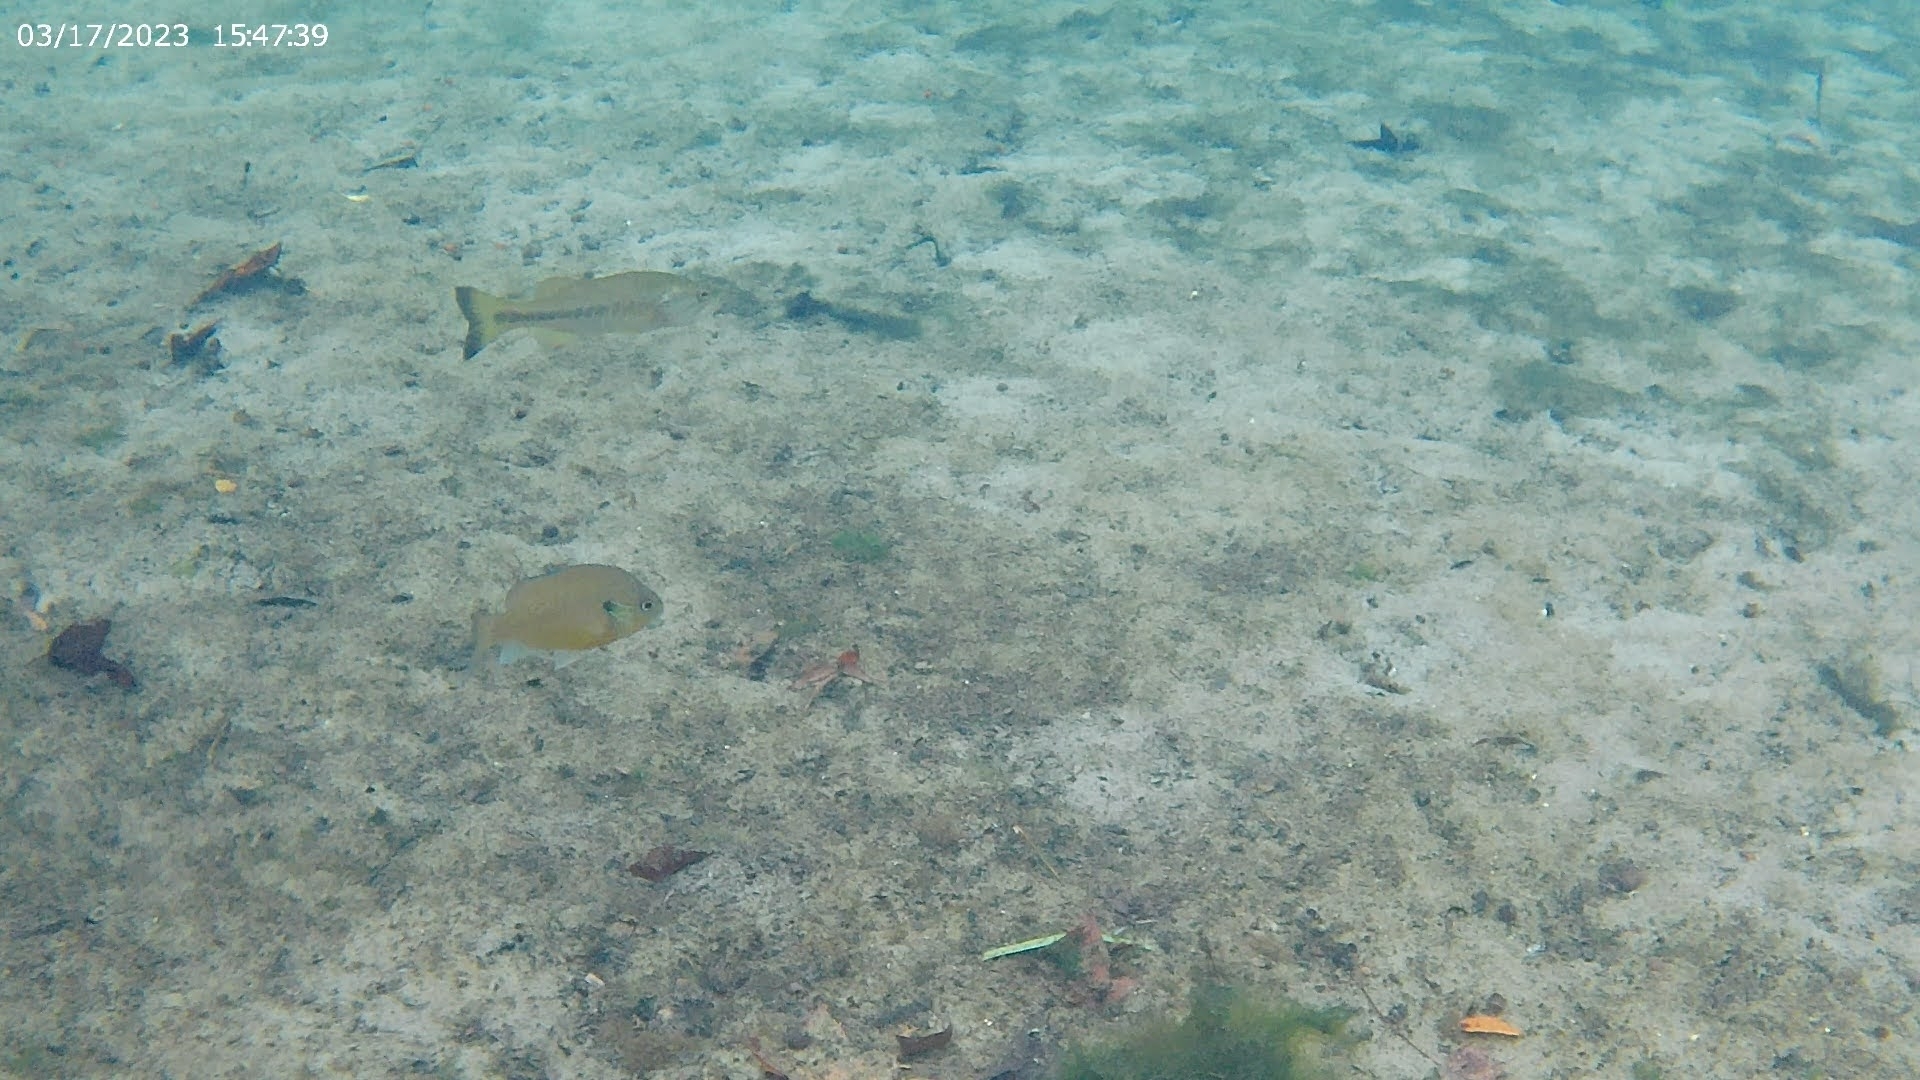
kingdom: Animalia
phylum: Chordata
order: Perciformes
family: Centrarchidae
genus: Micropterus
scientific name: Micropterus salmoides
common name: Largemouth bass
